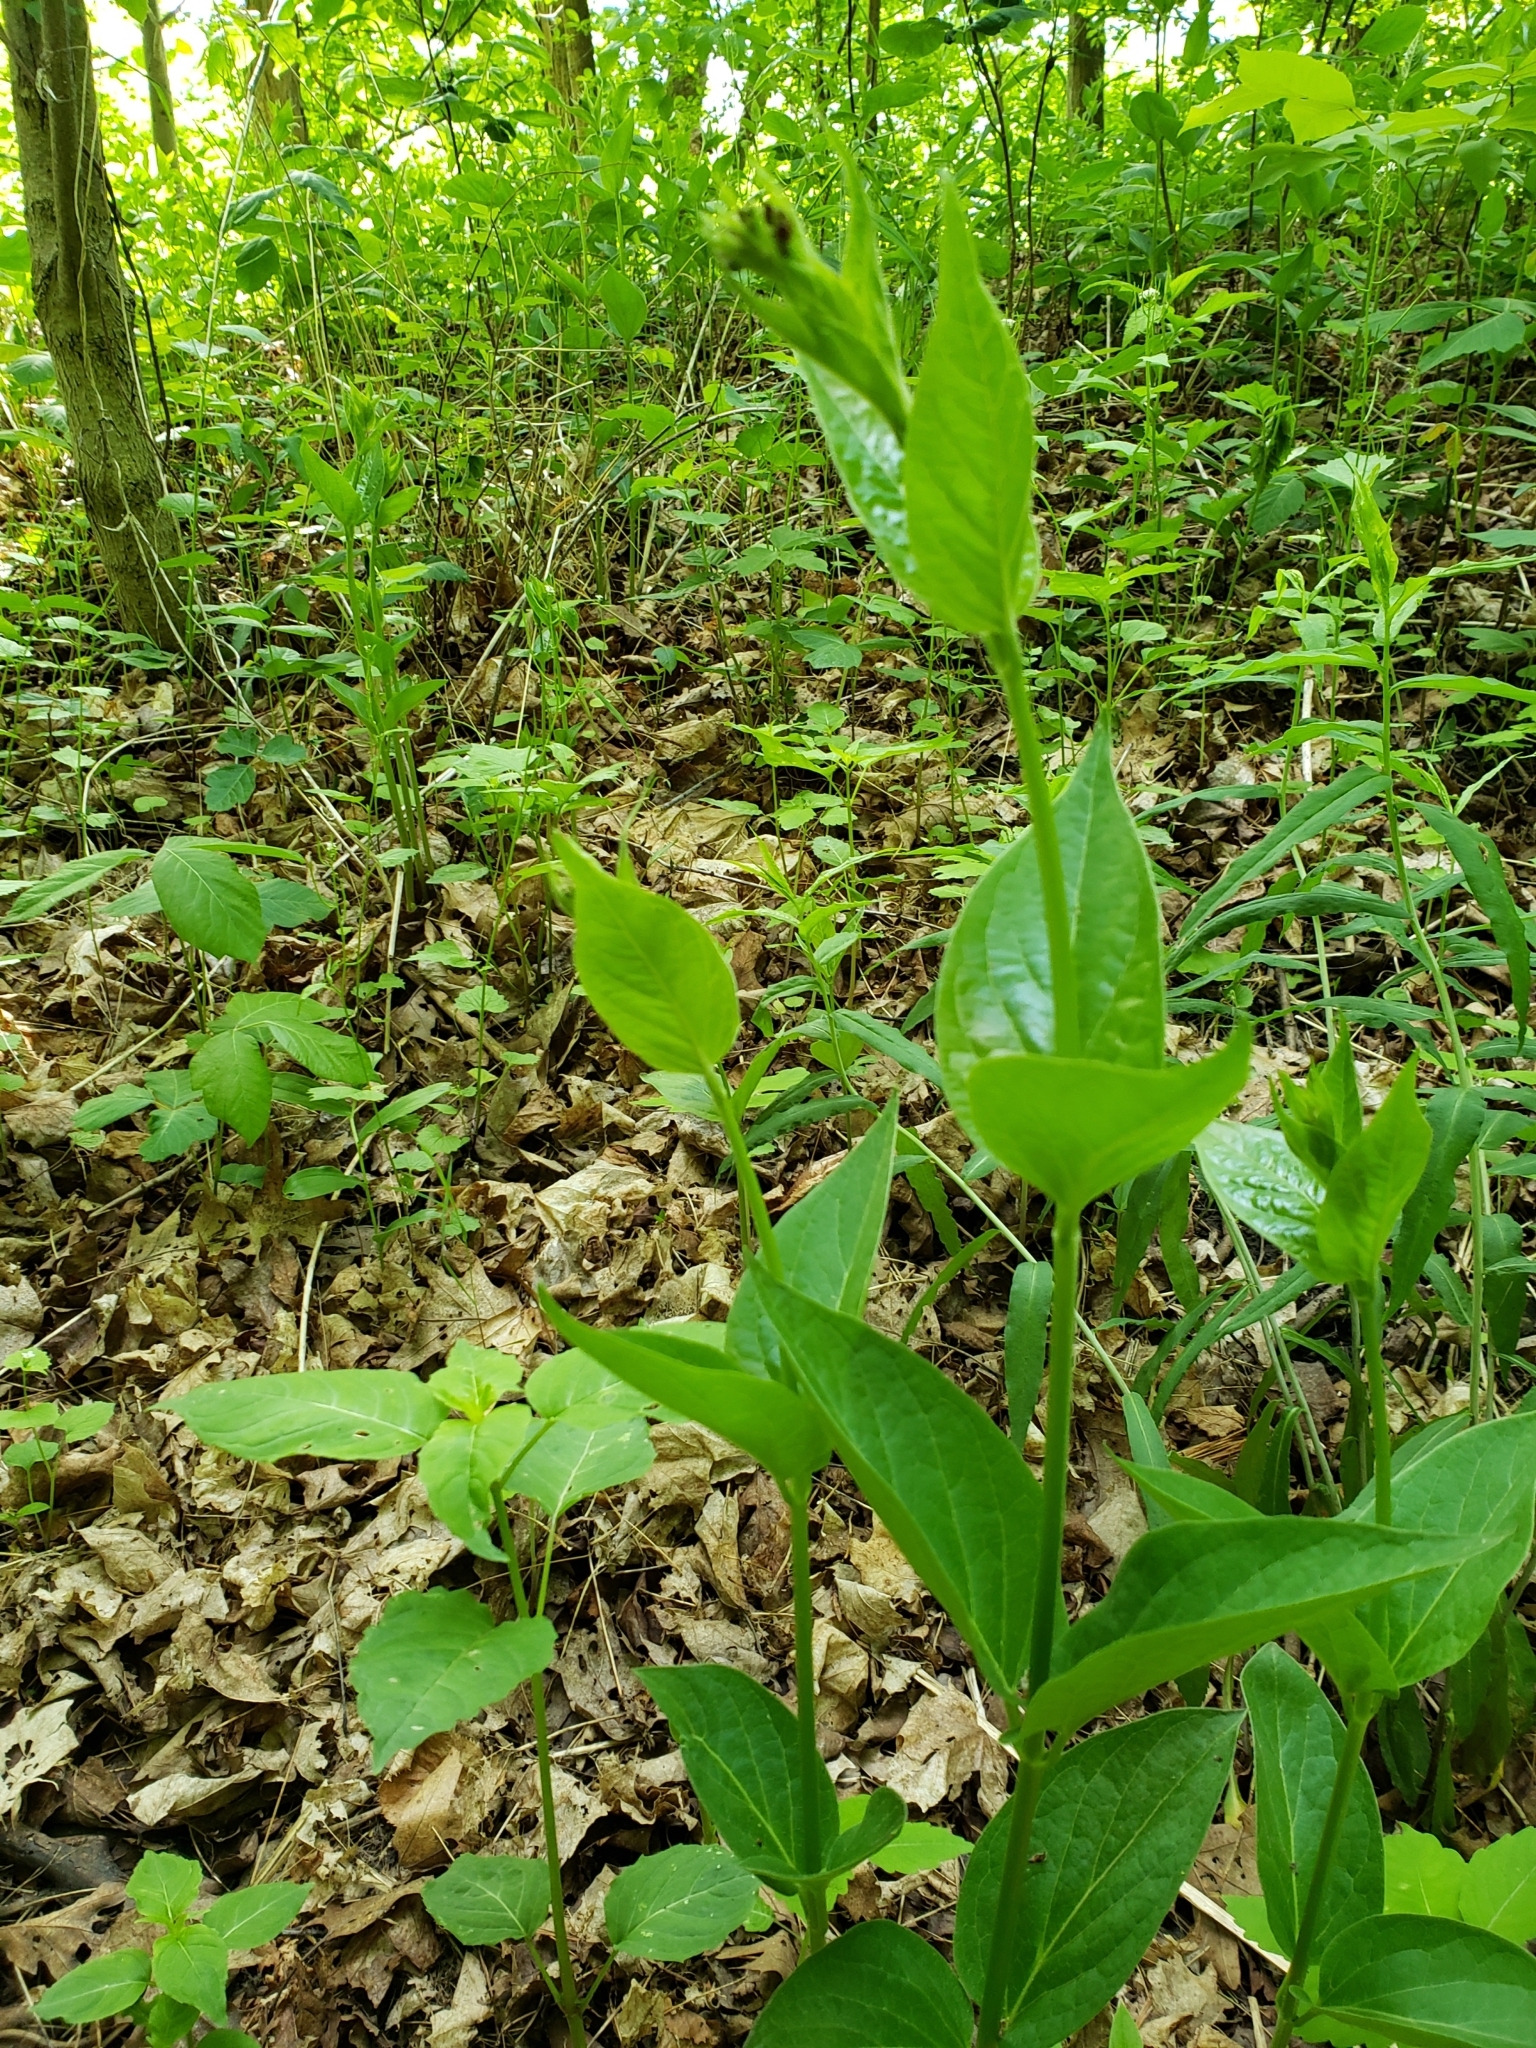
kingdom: Plantae
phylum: Tracheophyta
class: Magnoliopsida
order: Gentianales
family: Apocynaceae
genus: Vincetoxicum
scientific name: Vincetoxicum rossicum
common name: Dog-strangling vine
